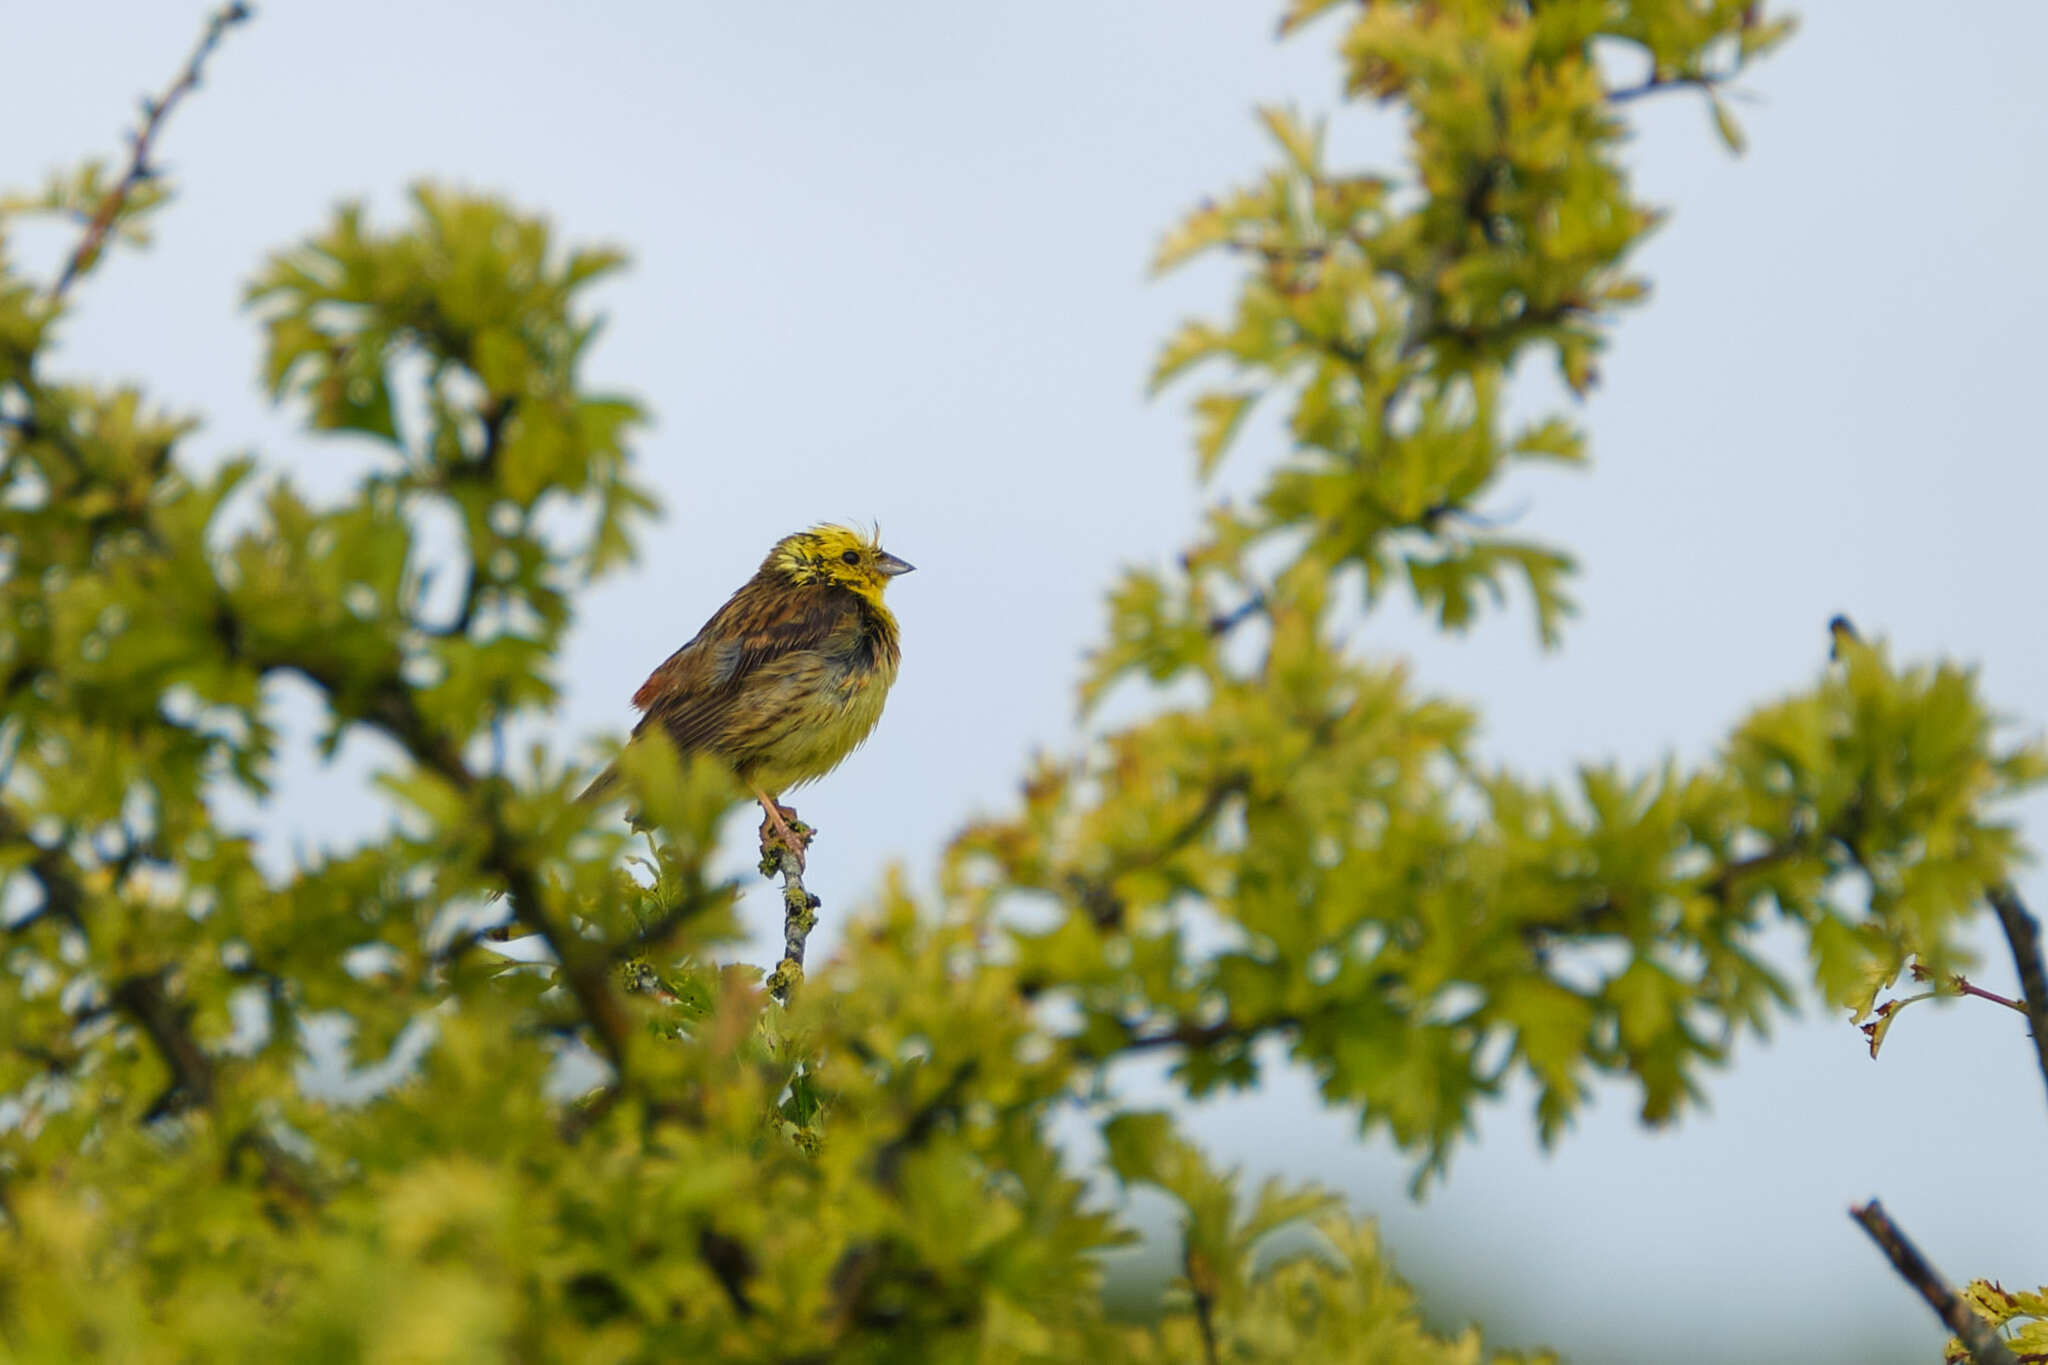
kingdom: Animalia
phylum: Chordata
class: Aves
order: Passeriformes
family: Emberizidae
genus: Emberiza
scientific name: Emberiza citrinella
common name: Yellowhammer
